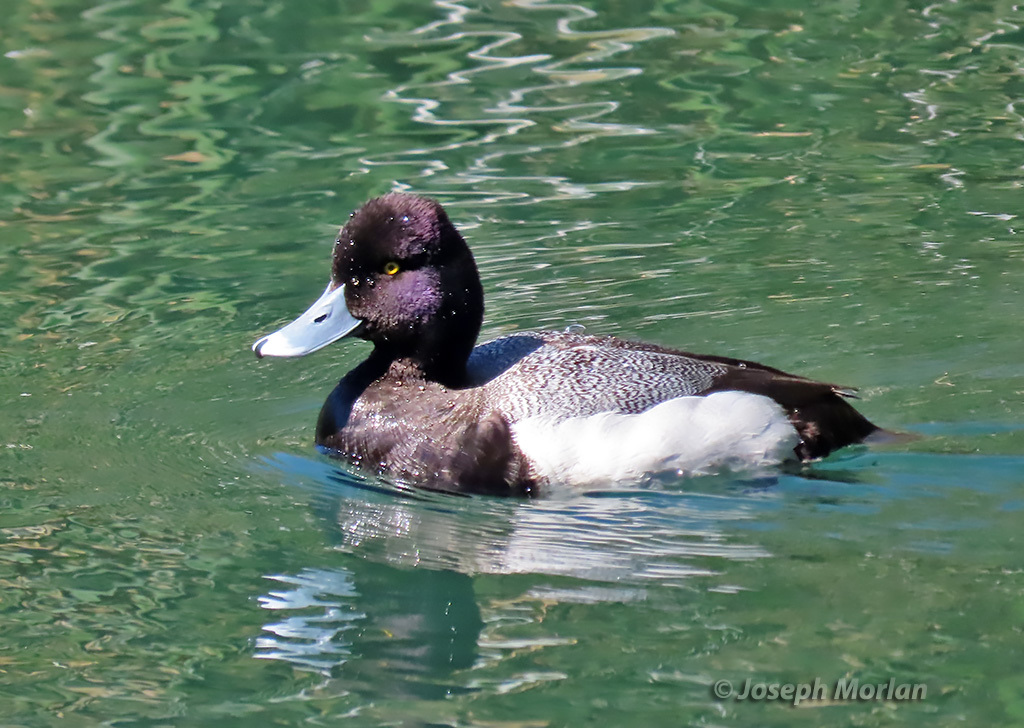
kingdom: Animalia
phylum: Chordata
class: Aves
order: Anseriformes
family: Anatidae
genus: Aythya
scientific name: Aythya affinis
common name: Lesser scaup
